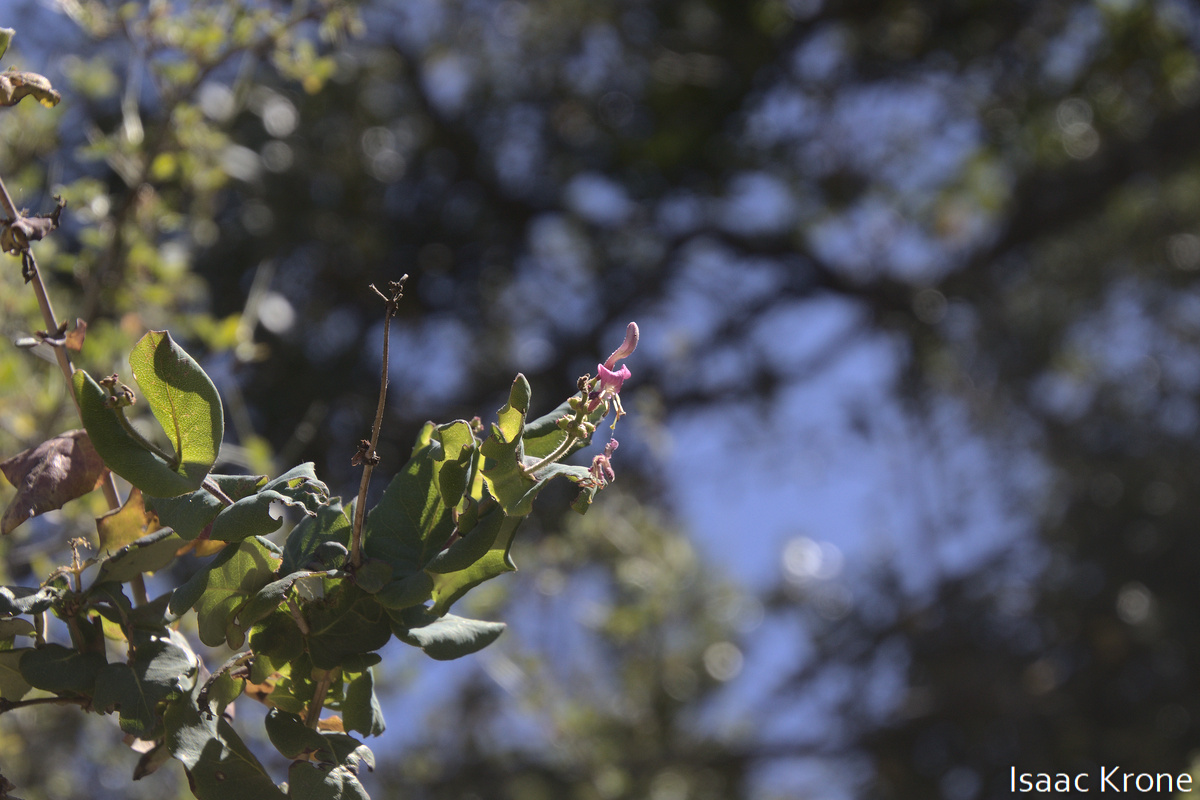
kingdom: Plantae
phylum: Tracheophyta
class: Magnoliopsida
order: Dipsacales
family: Caprifoliaceae
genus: Lonicera
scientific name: Lonicera hispidula
